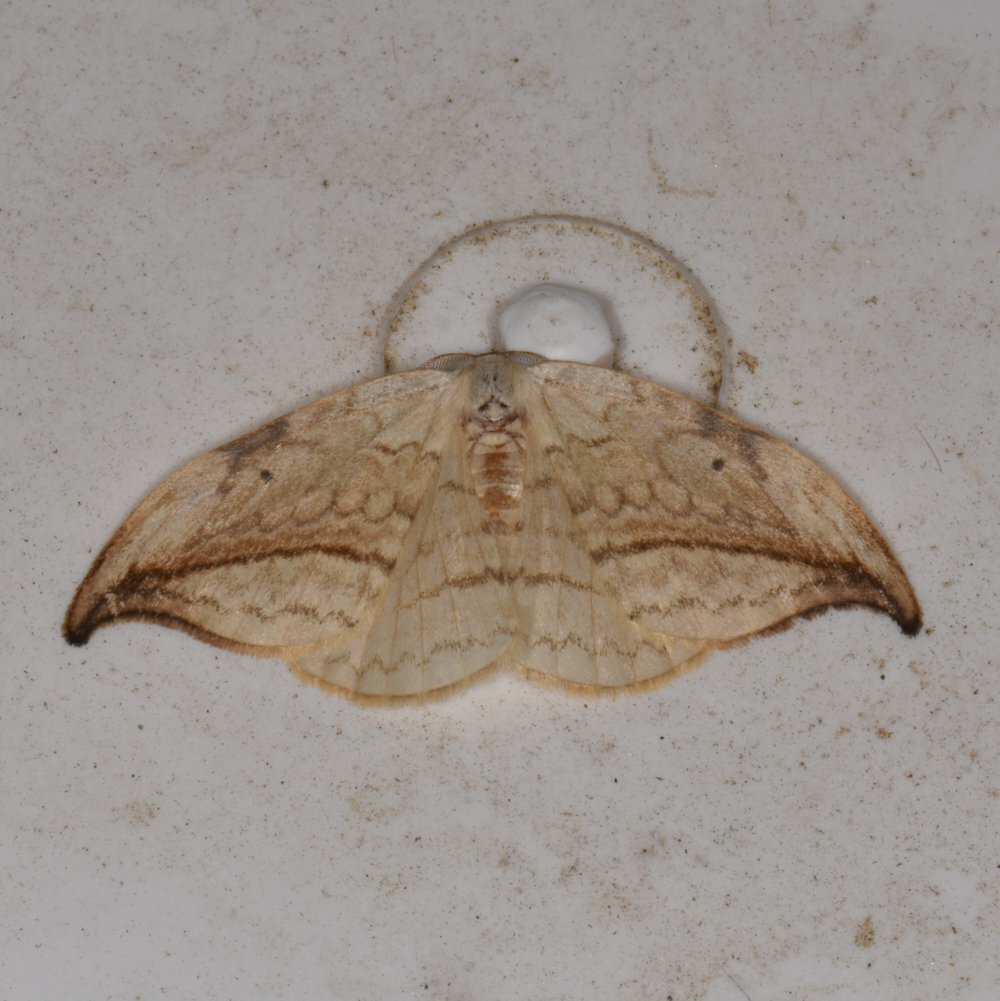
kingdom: Animalia
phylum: Arthropoda
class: Insecta
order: Lepidoptera
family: Drepanidae
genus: Drepana
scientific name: Drepana arcuata
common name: Arched hooktip moth
